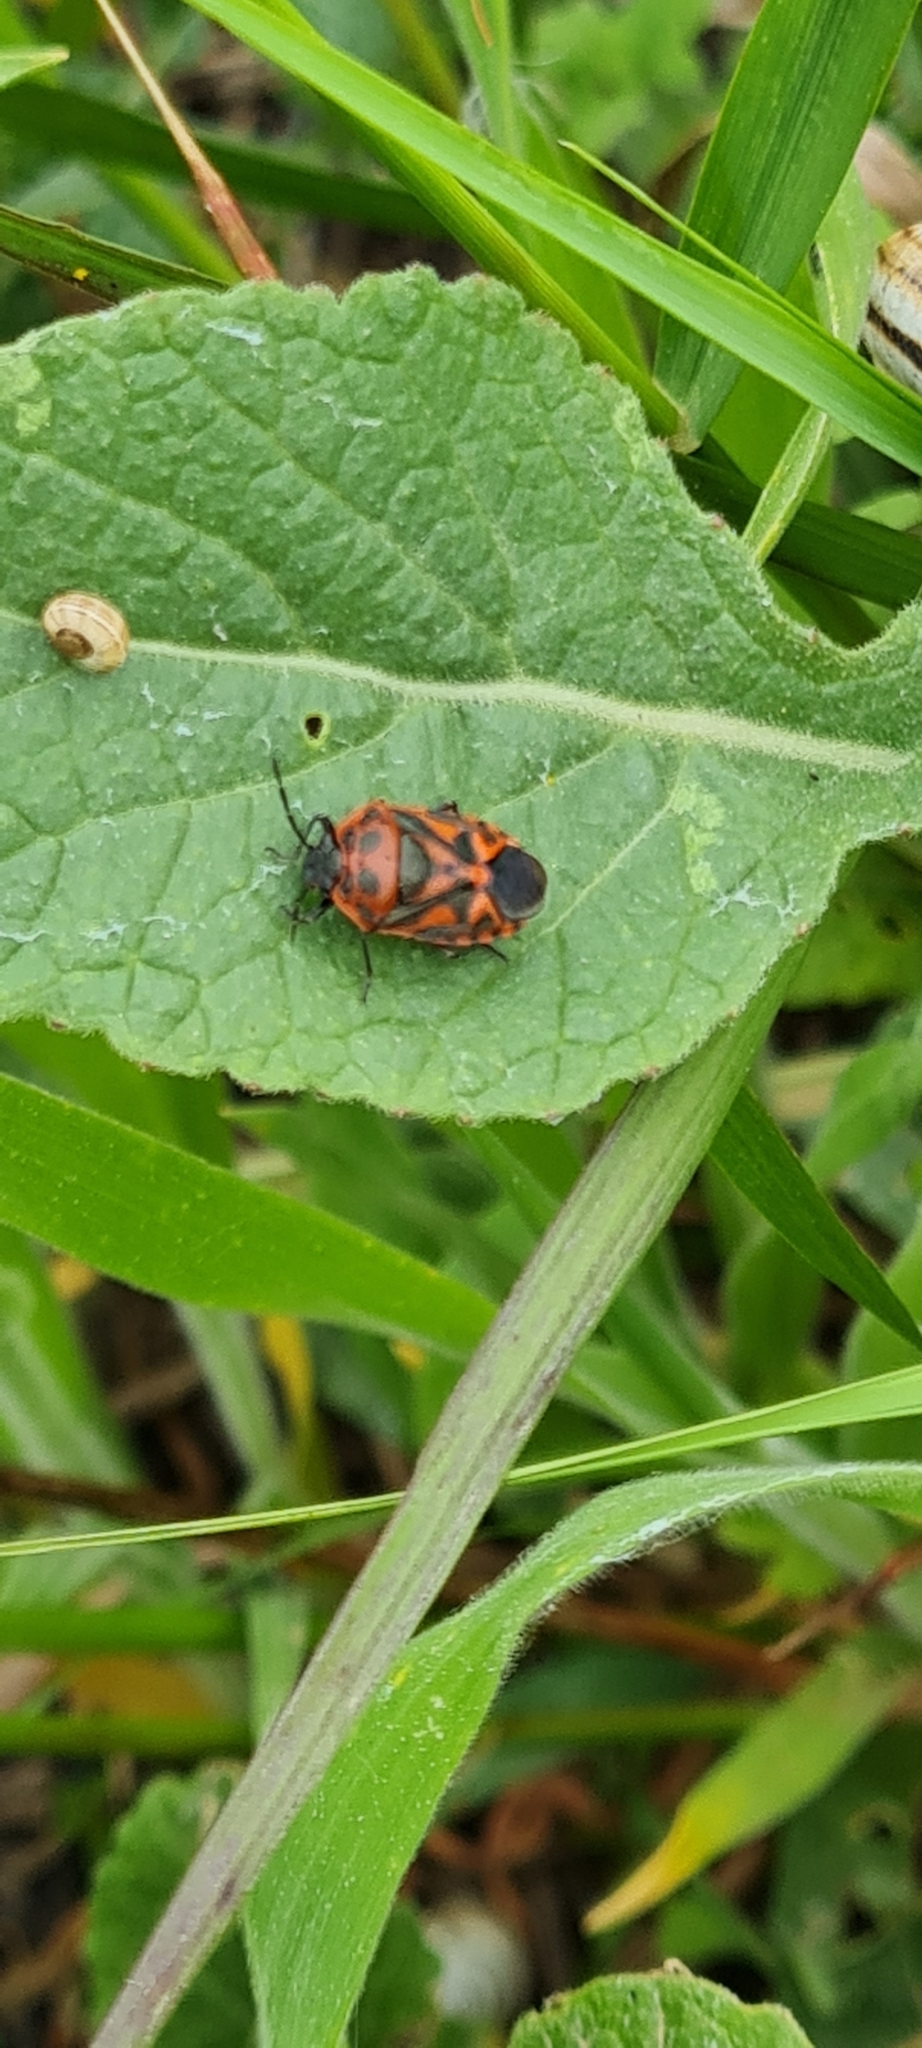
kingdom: Animalia
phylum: Arthropoda
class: Insecta
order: Hemiptera
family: Pentatomidae
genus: Eurydema
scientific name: Eurydema ornata
